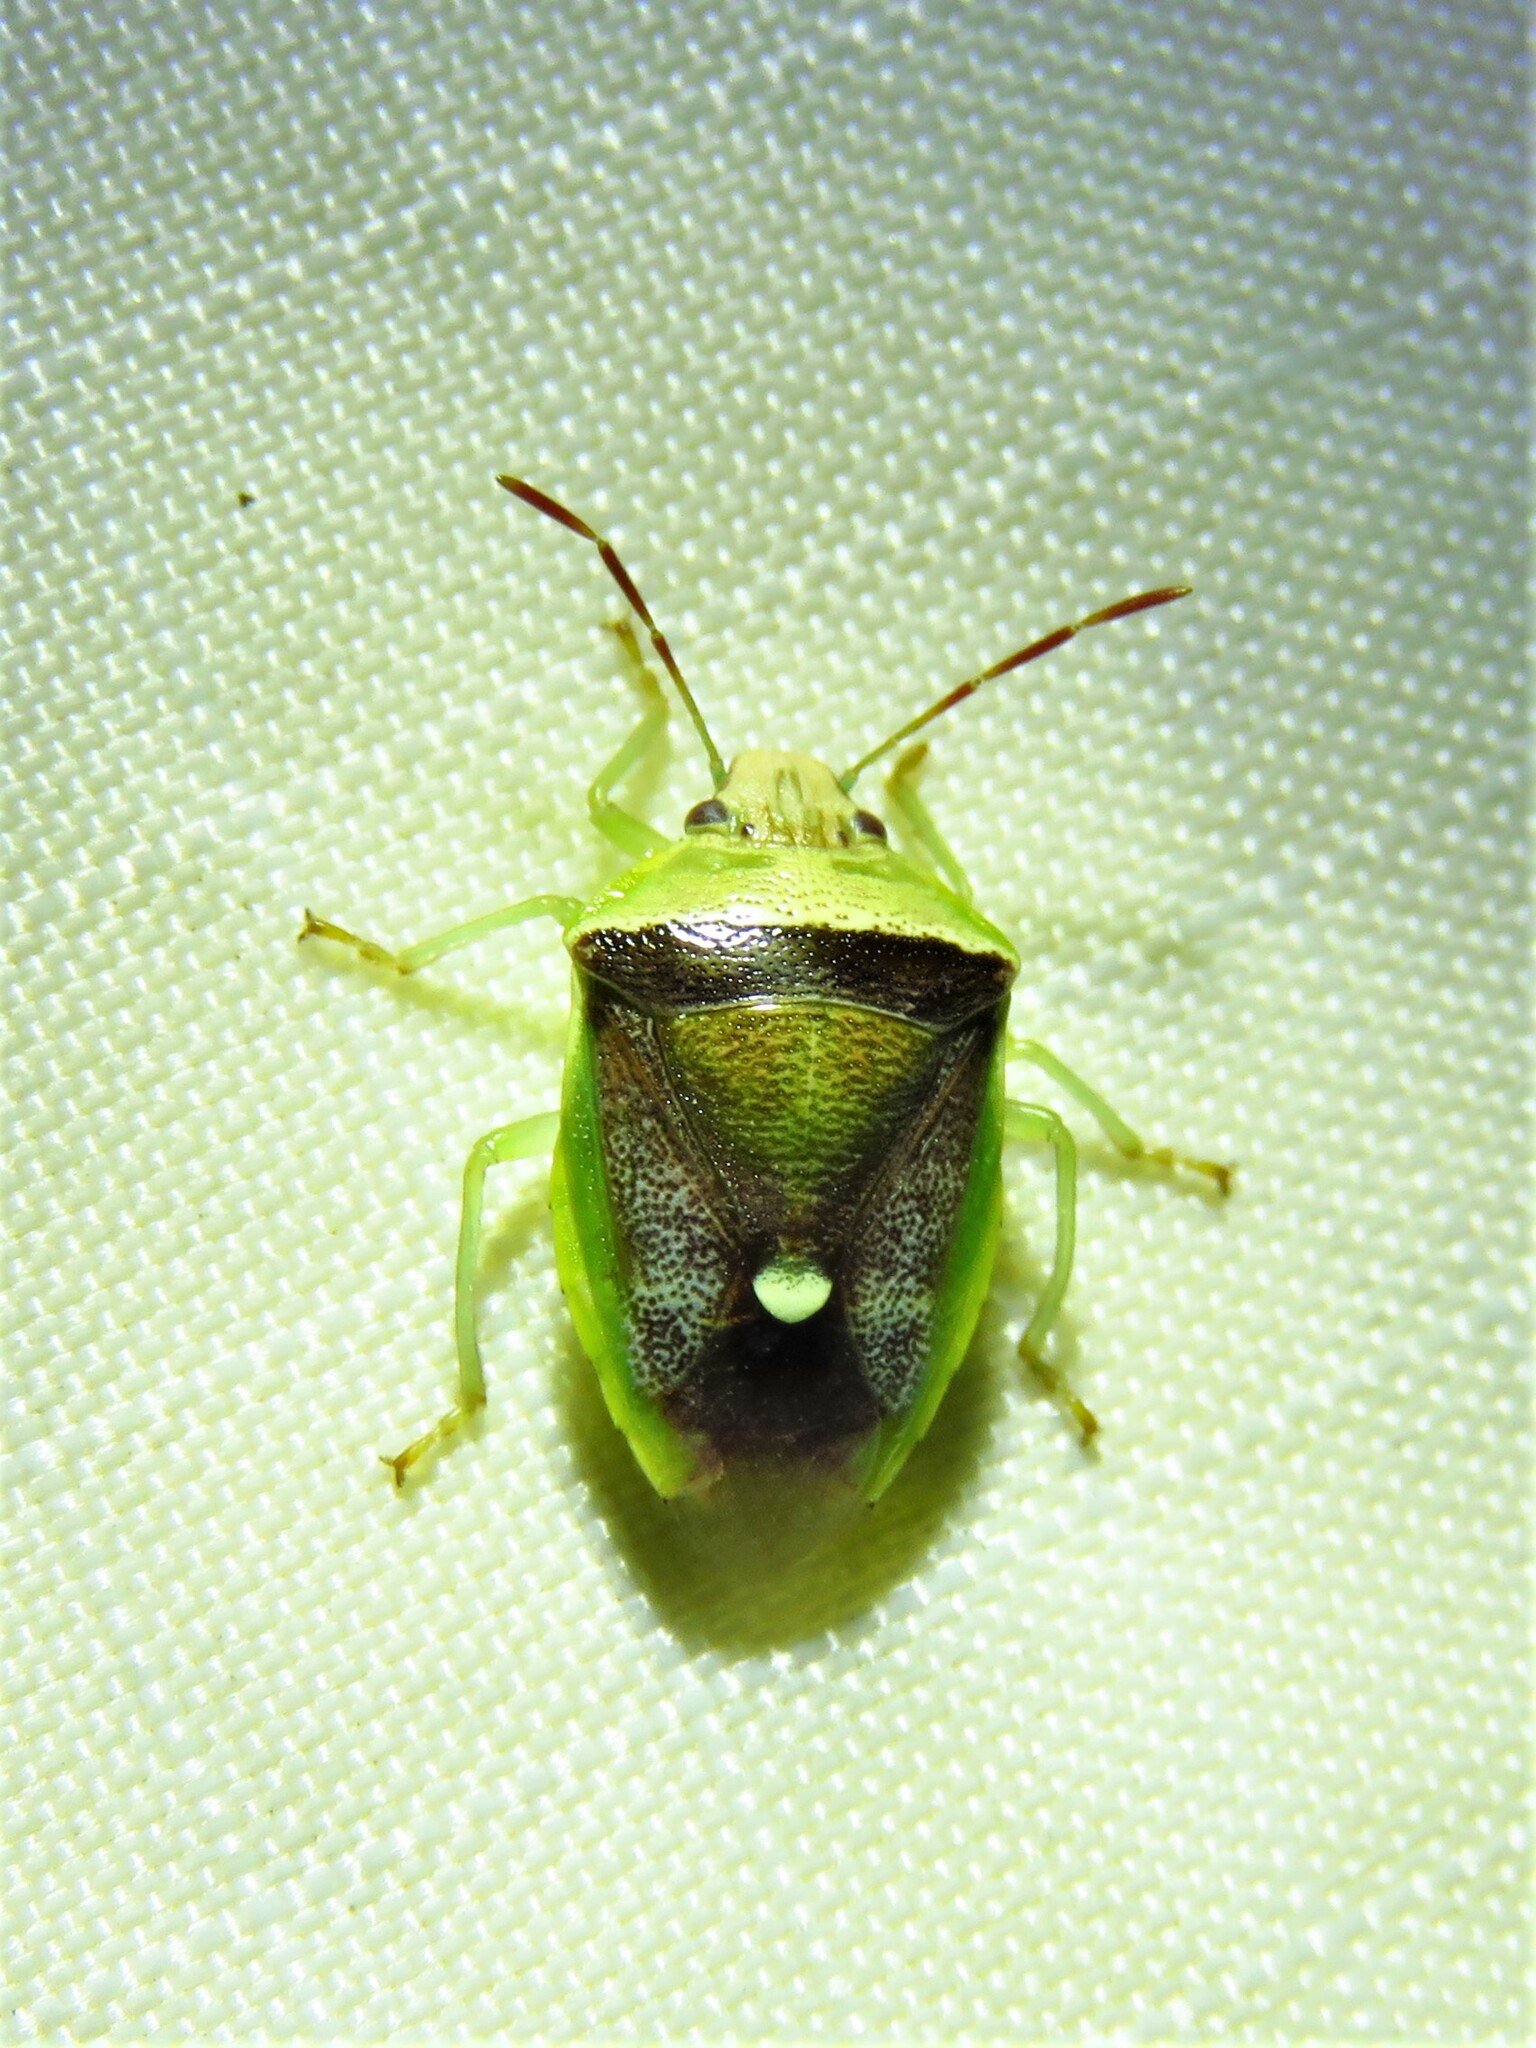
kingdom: Animalia
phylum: Arthropoda
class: Insecta
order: Hemiptera
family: Pentatomidae
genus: Banasa
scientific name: Banasa dimidiata
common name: Green burgundy stink bug
